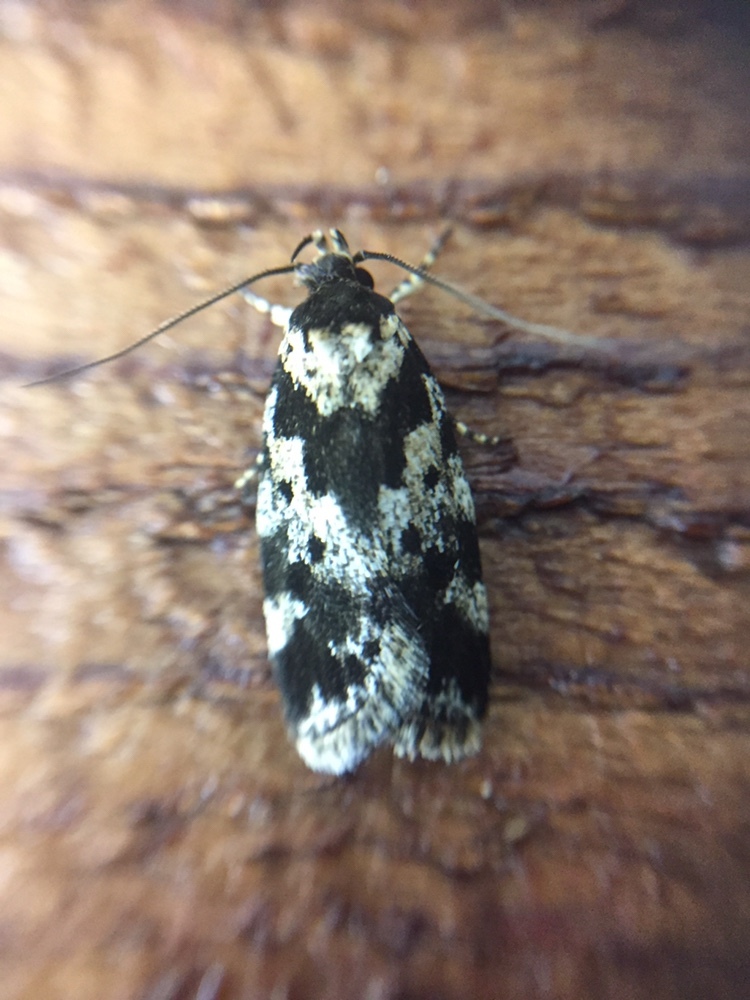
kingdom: Animalia
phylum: Arthropoda
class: Insecta
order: Lepidoptera
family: Oecophoridae
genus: Barea
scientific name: Barea confusella
